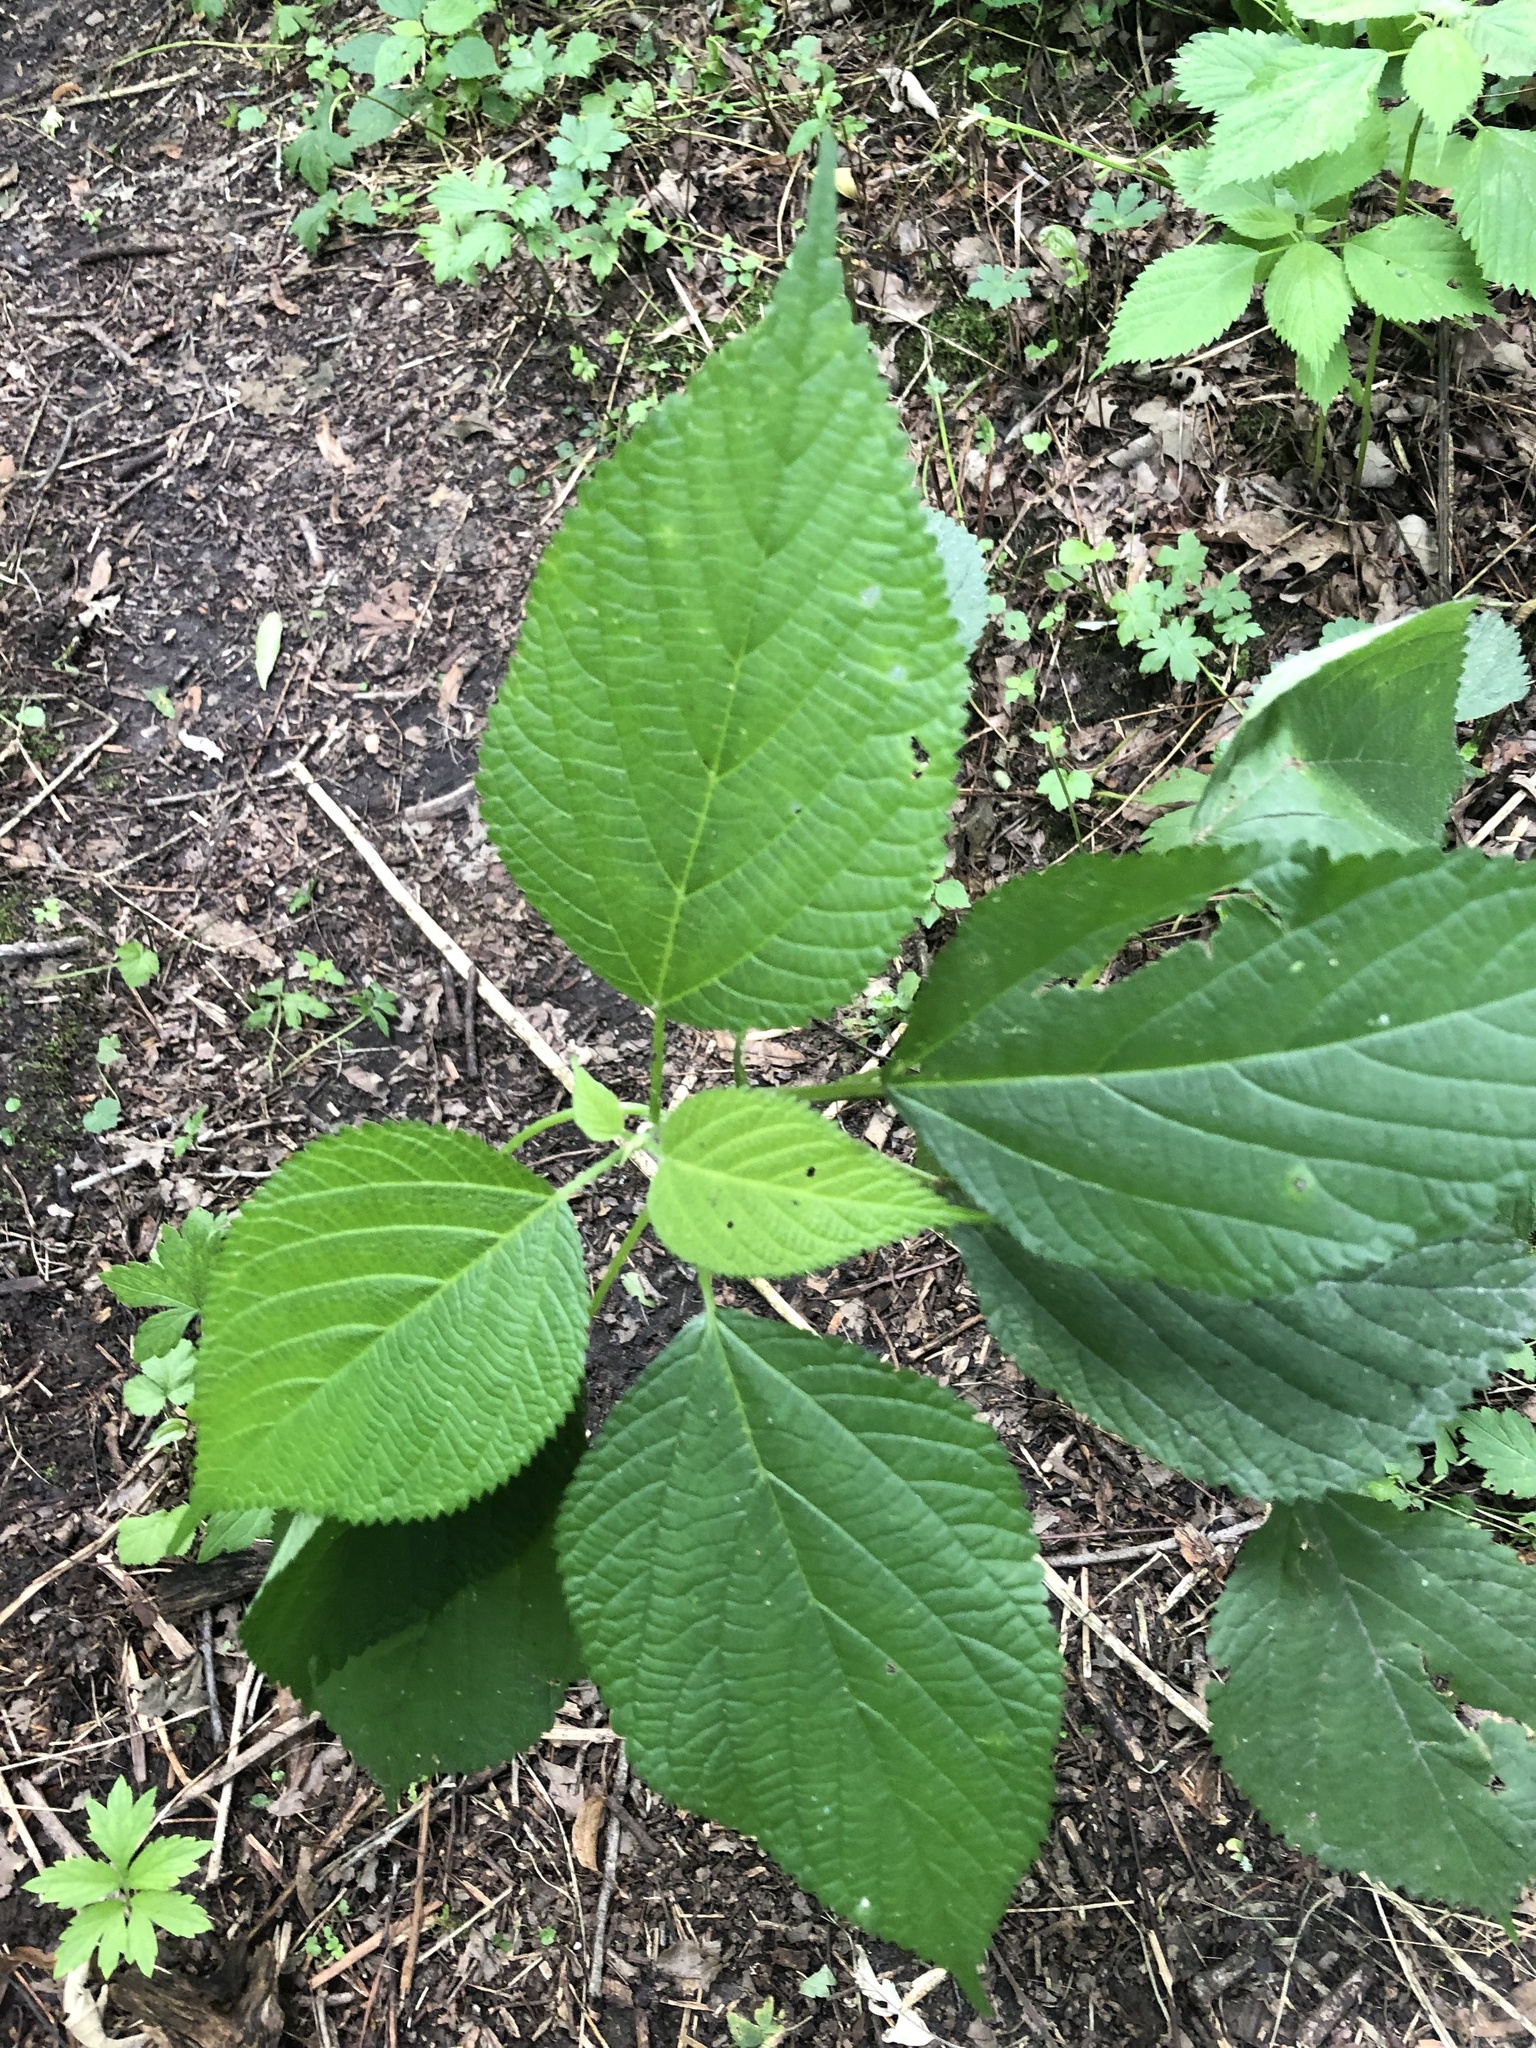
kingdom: Plantae
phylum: Tracheophyta
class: Magnoliopsida
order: Rosales
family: Urticaceae
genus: Laportea
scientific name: Laportea canadensis
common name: Canada nettle
